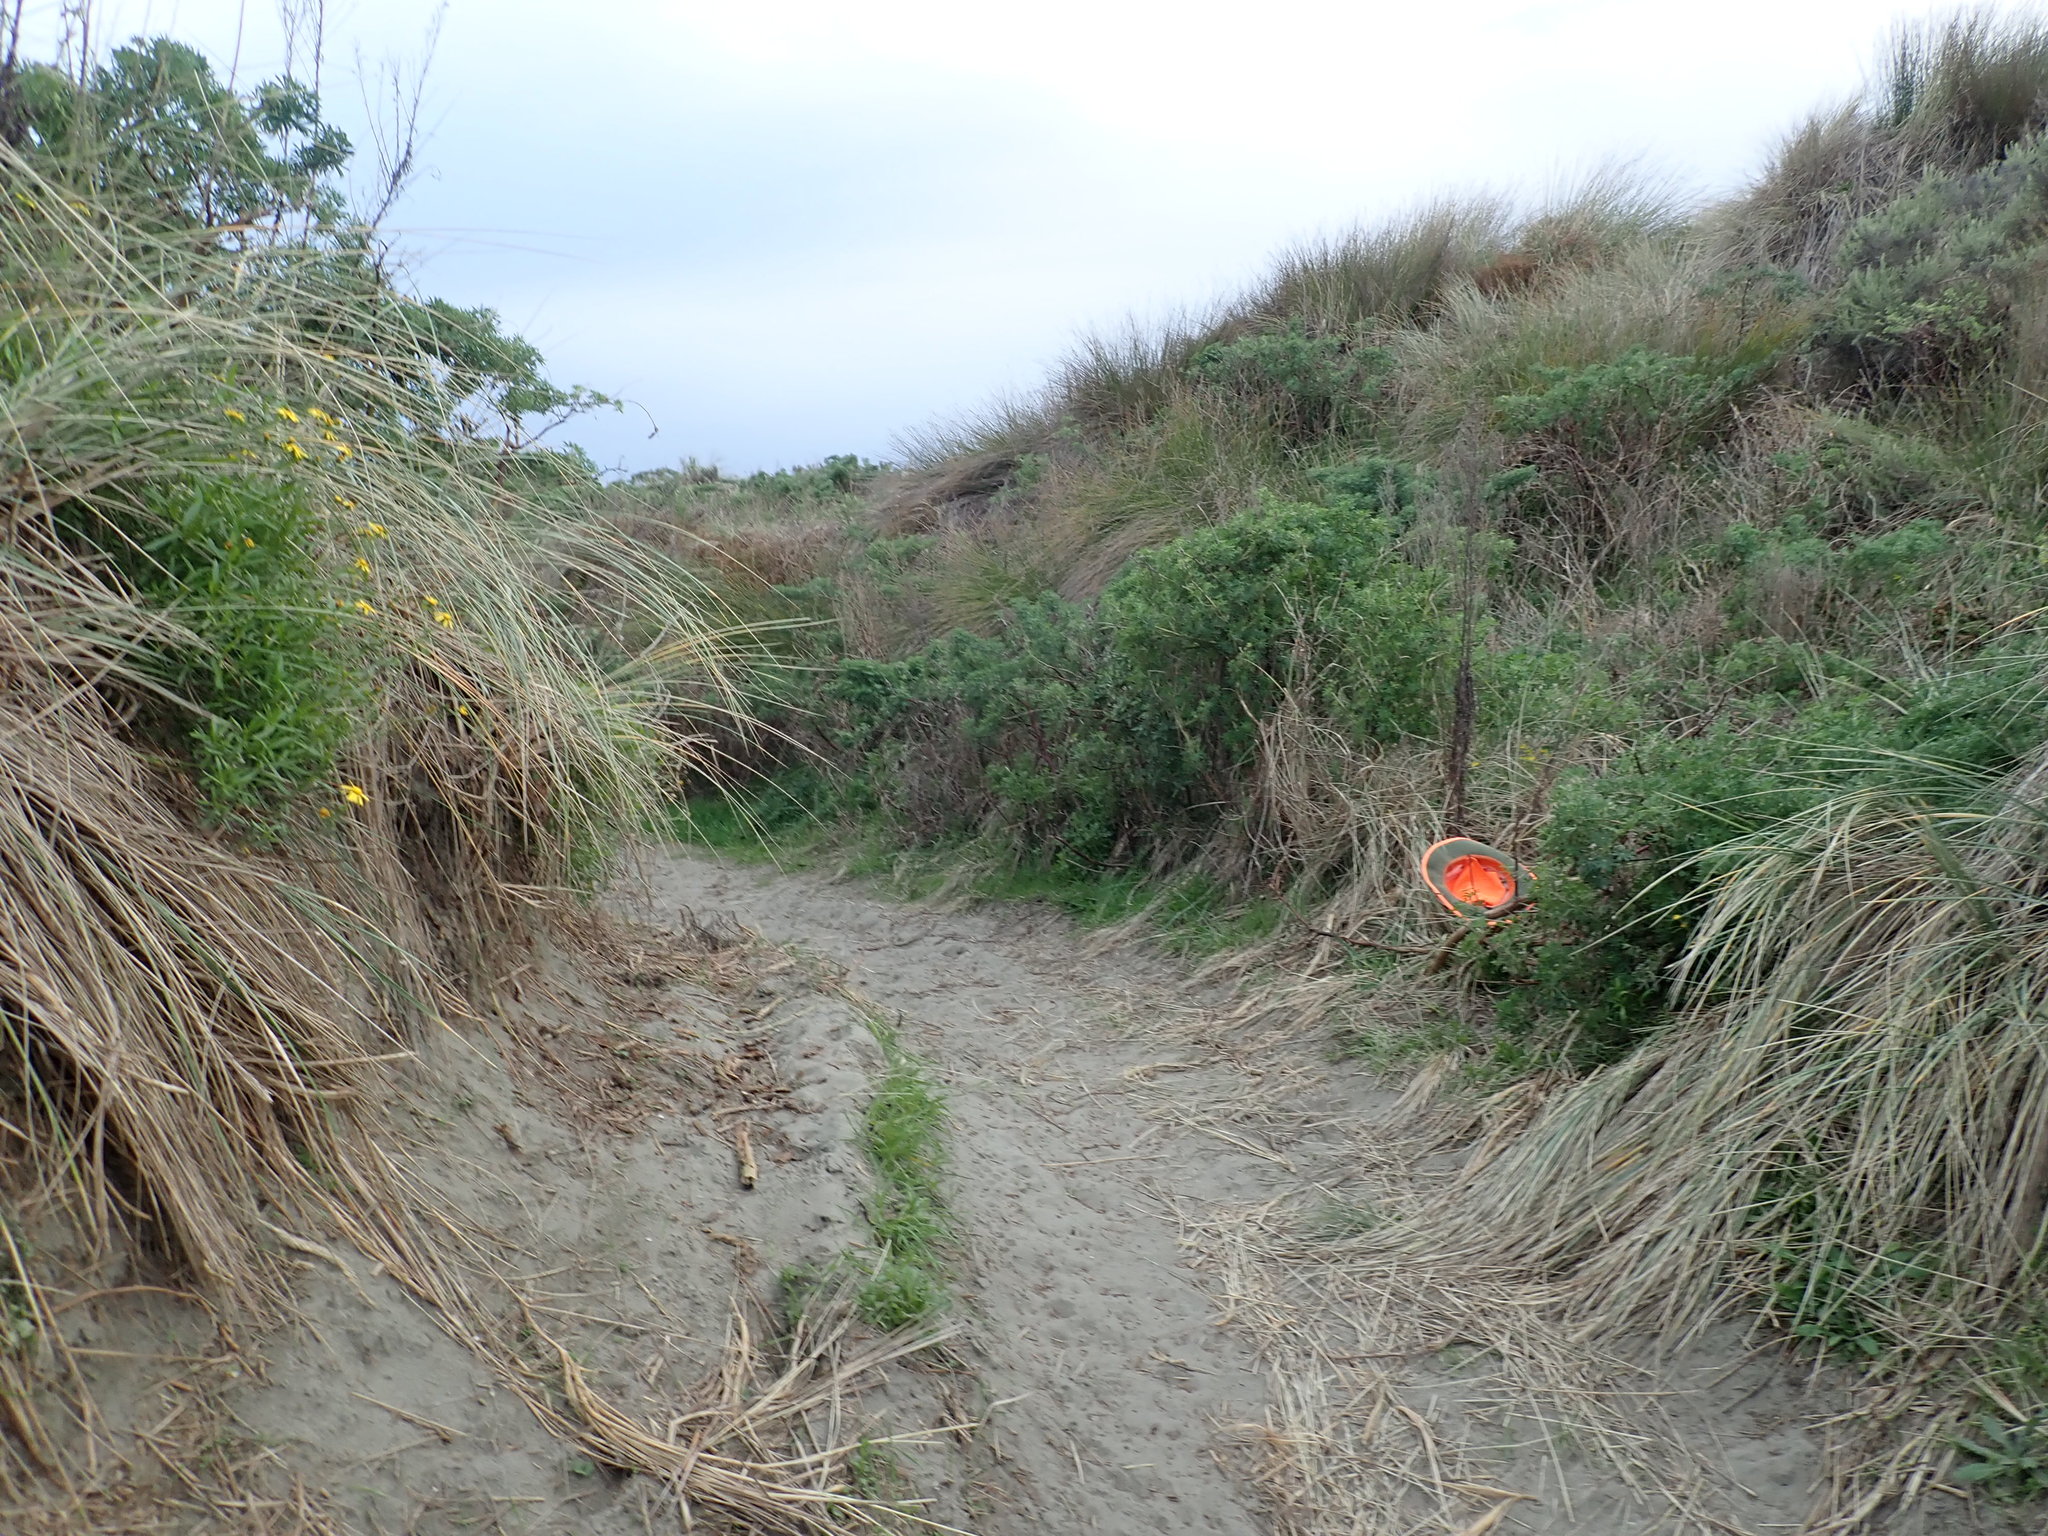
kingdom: Plantae
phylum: Tracheophyta
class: Magnoliopsida
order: Asterales
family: Asteraceae
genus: Senecio
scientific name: Senecio skirrhodon
